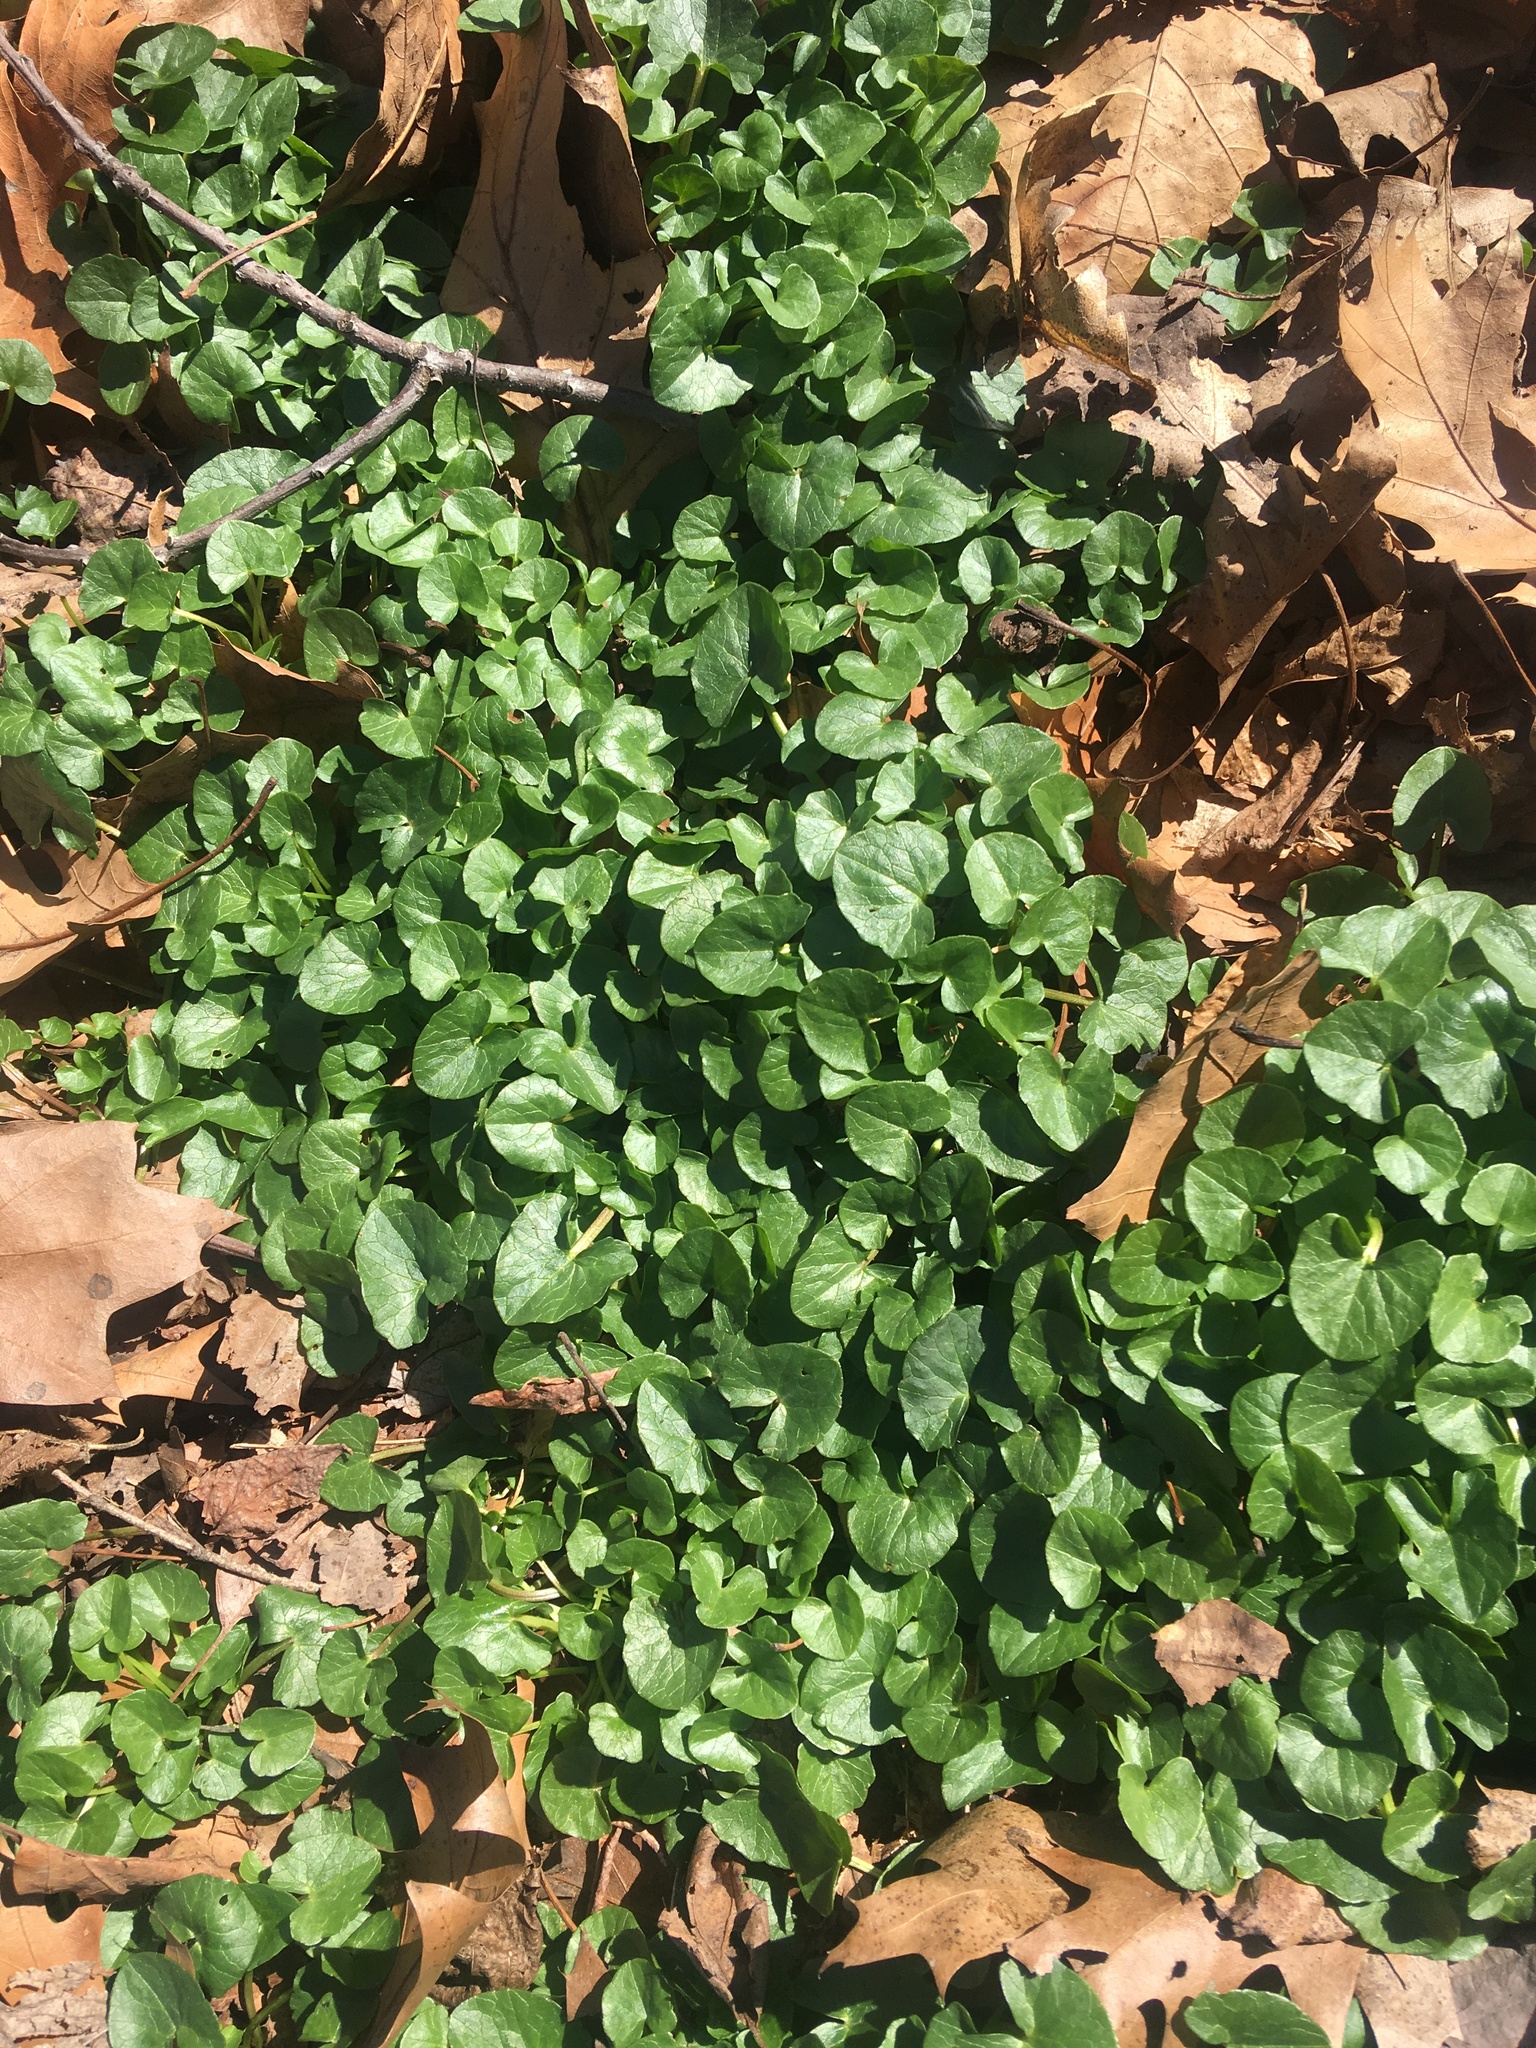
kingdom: Plantae
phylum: Tracheophyta
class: Magnoliopsida
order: Ranunculales
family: Ranunculaceae
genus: Ficaria
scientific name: Ficaria verna
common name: Lesser celandine
